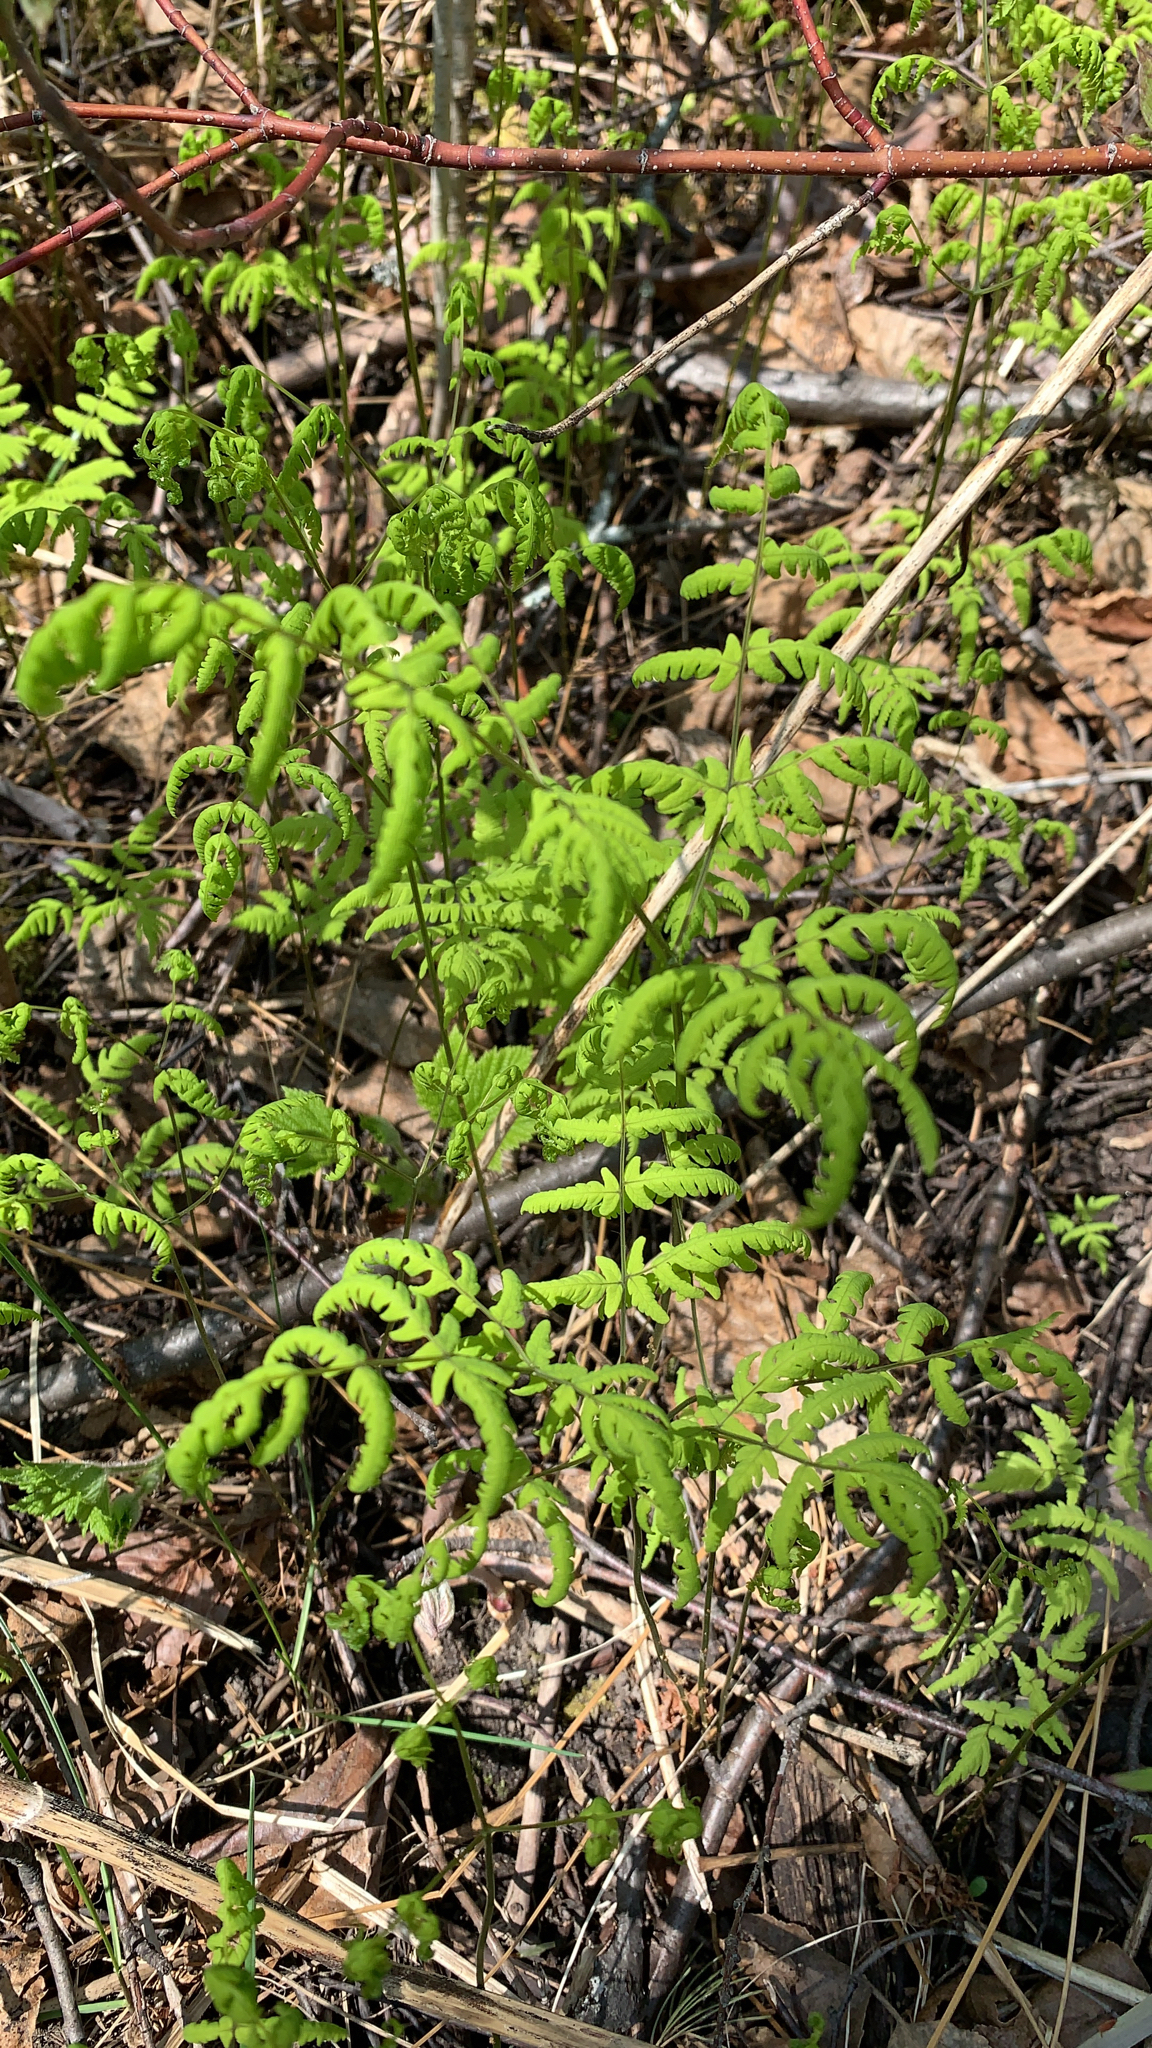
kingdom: Plantae
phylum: Tracheophyta
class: Polypodiopsida
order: Polypodiales
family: Cystopteridaceae
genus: Gymnocarpium
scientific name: Gymnocarpium dryopteris
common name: Oak fern
